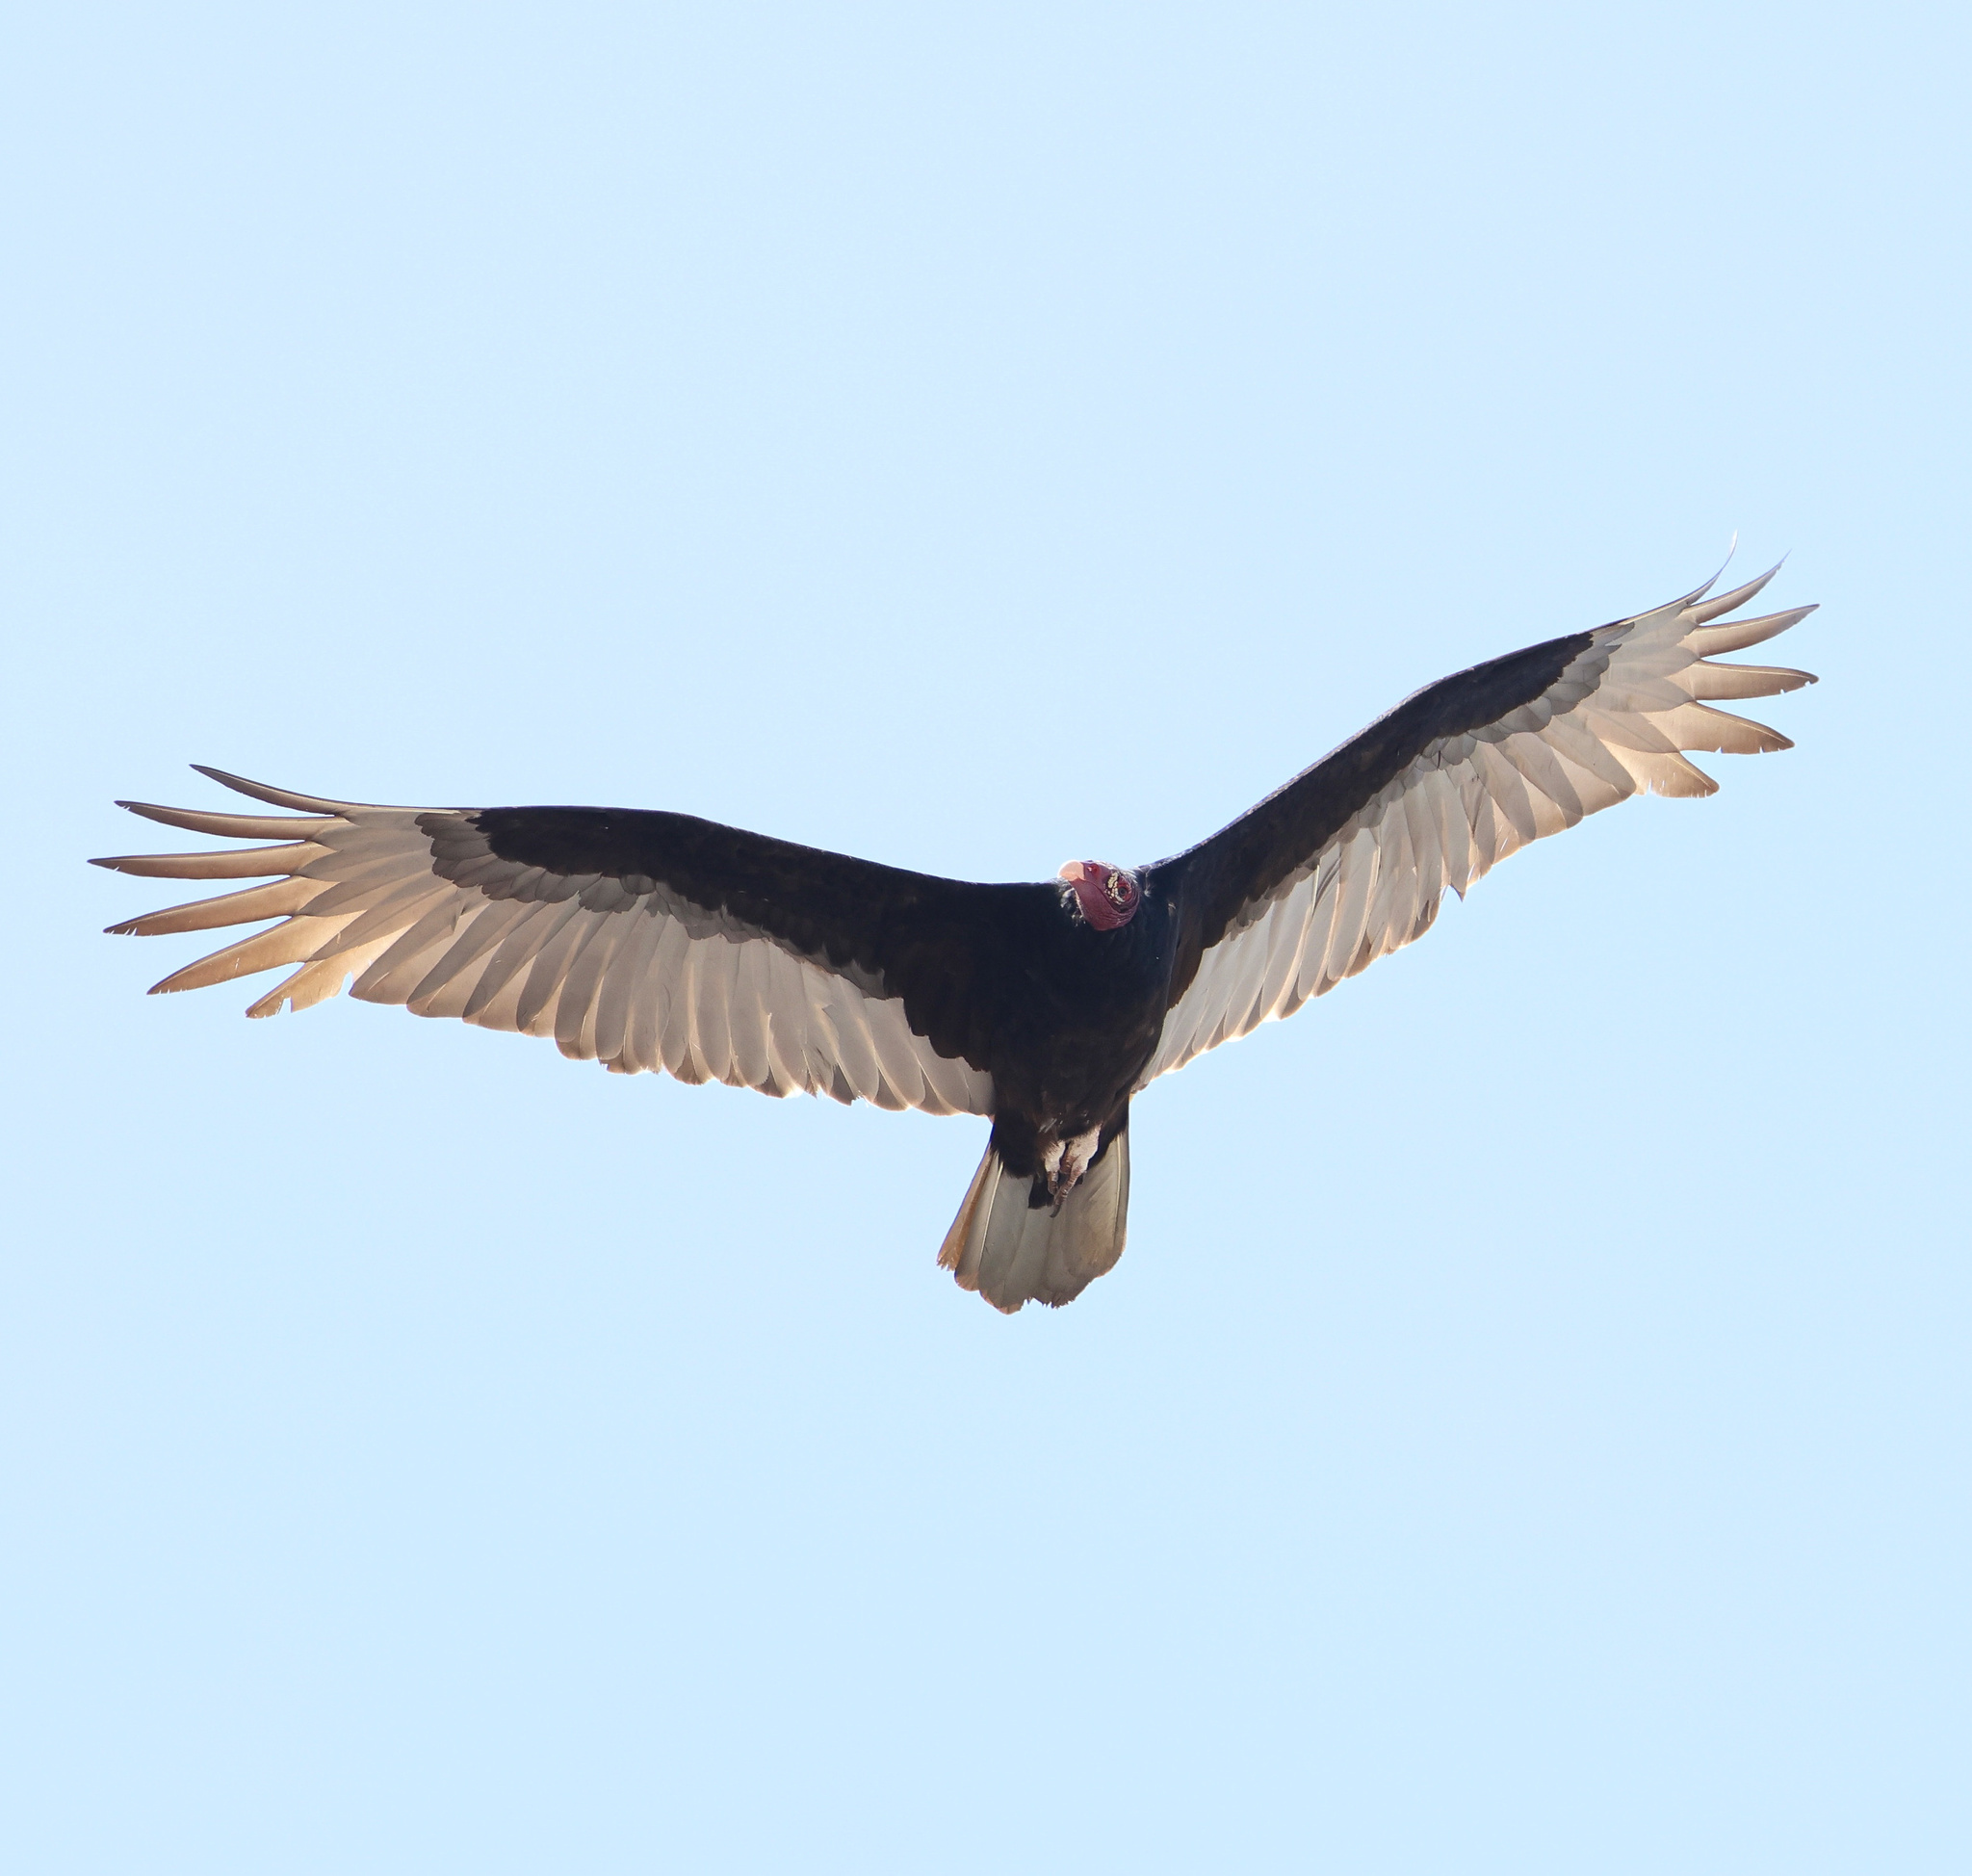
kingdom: Animalia
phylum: Chordata
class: Aves
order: Accipitriformes
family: Cathartidae
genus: Cathartes
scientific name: Cathartes aura
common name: Turkey vulture
